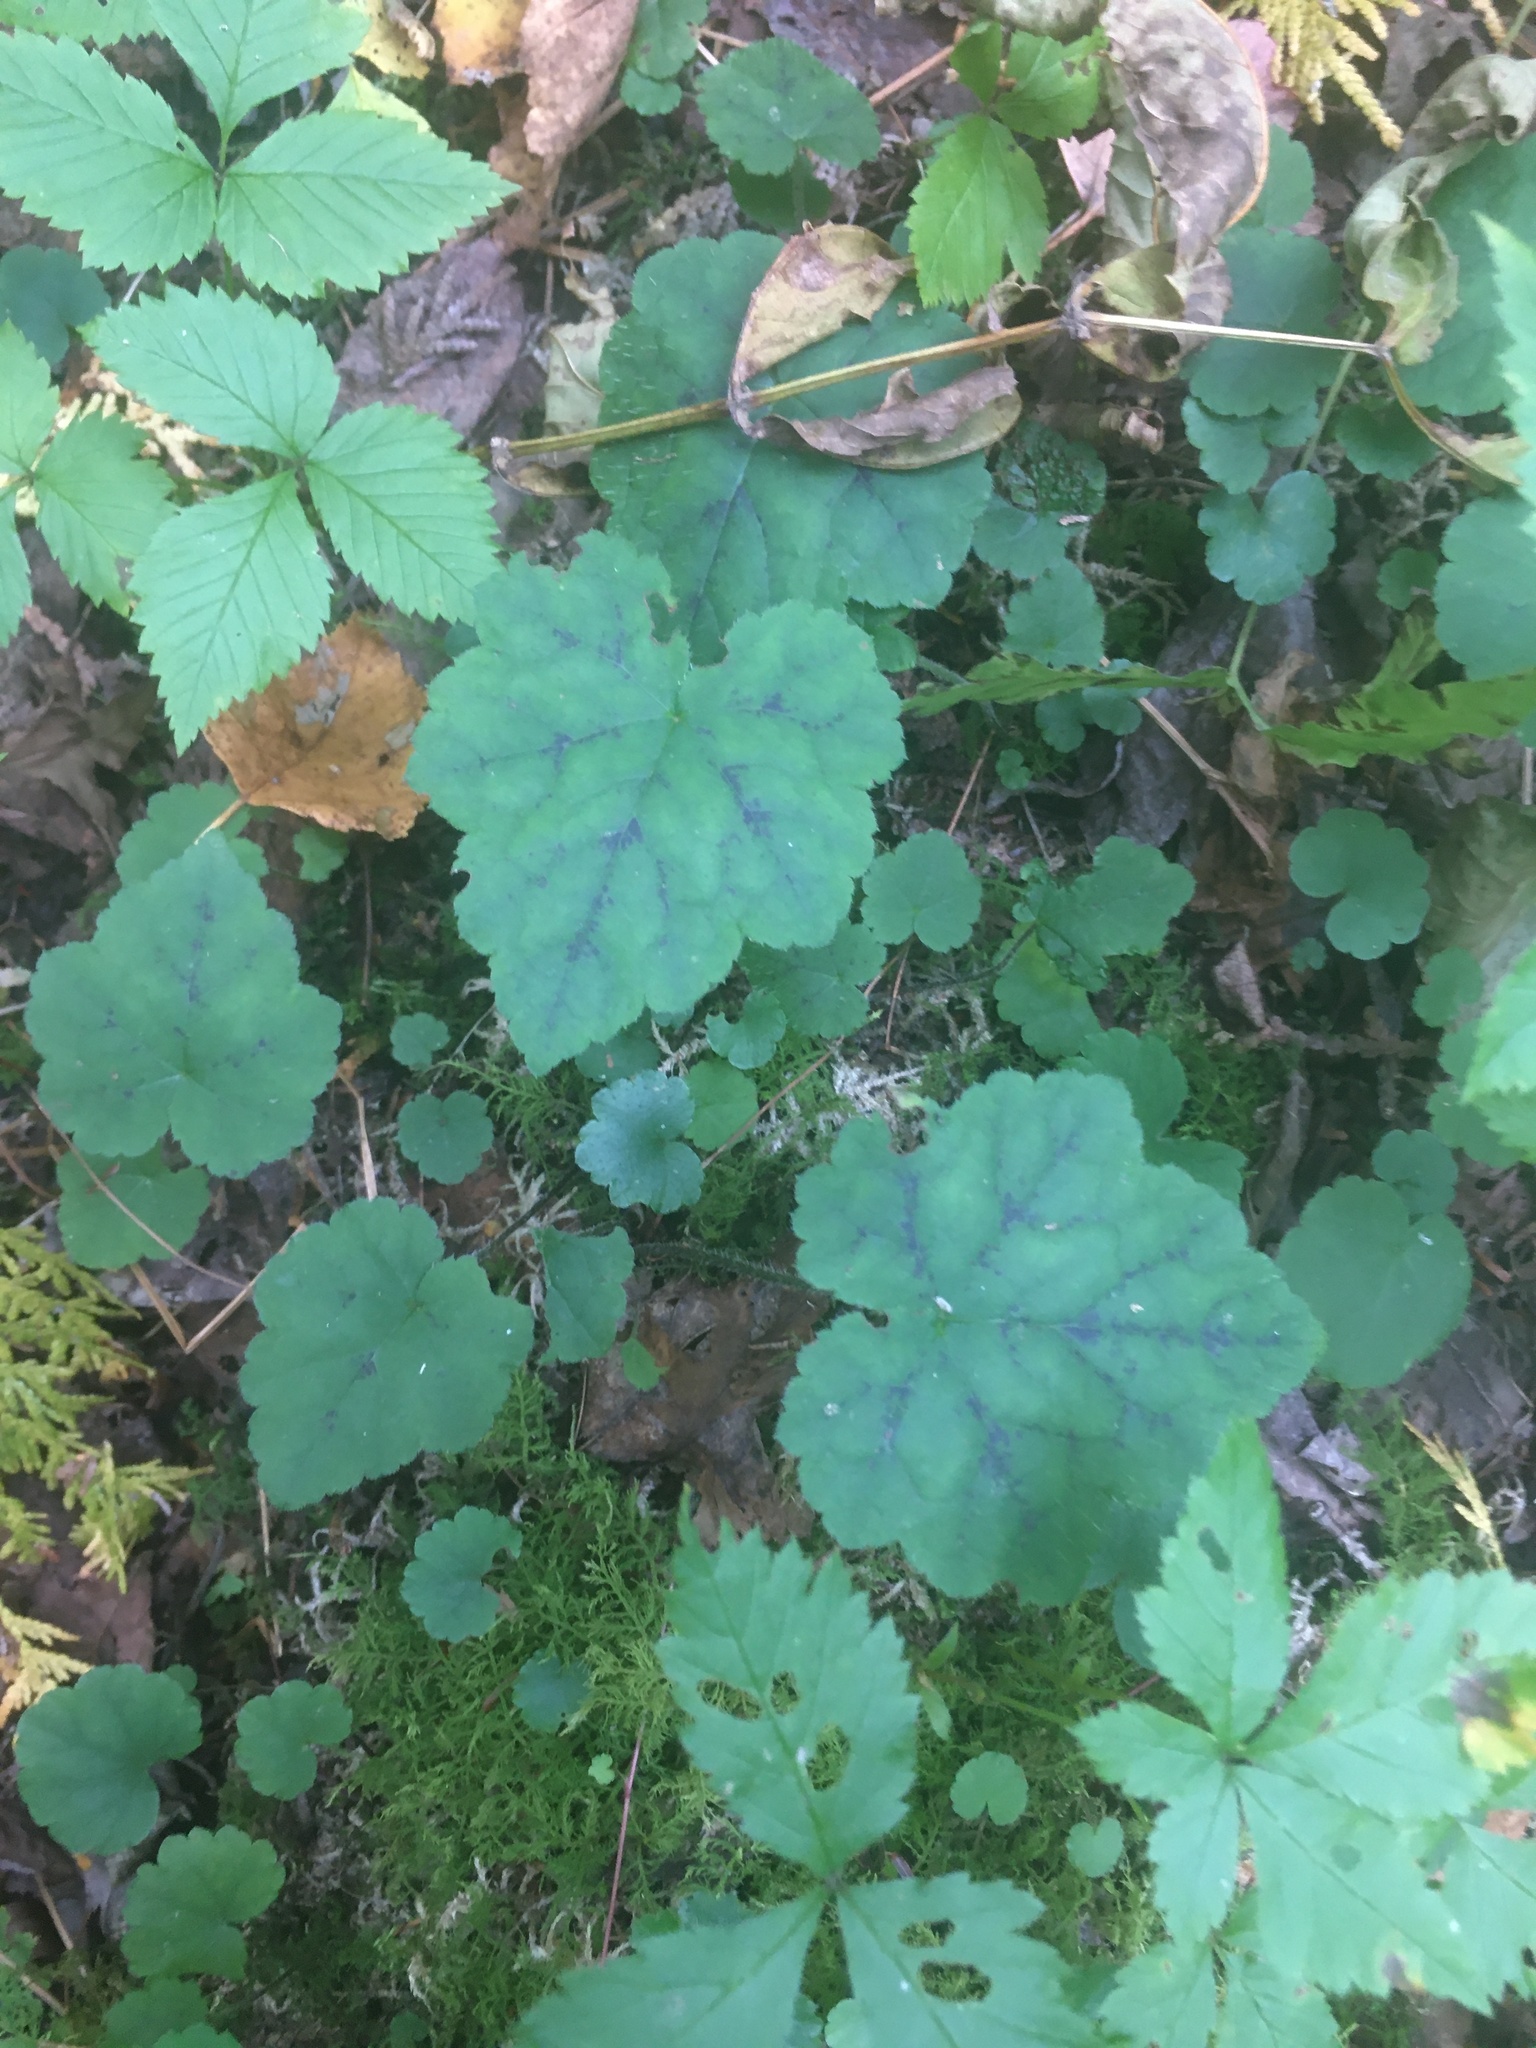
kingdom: Plantae
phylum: Tracheophyta
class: Magnoliopsida
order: Saxifragales
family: Saxifragaceae
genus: Tiarella
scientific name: Tiarella stolonifera
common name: Stoloniferous foamflower
